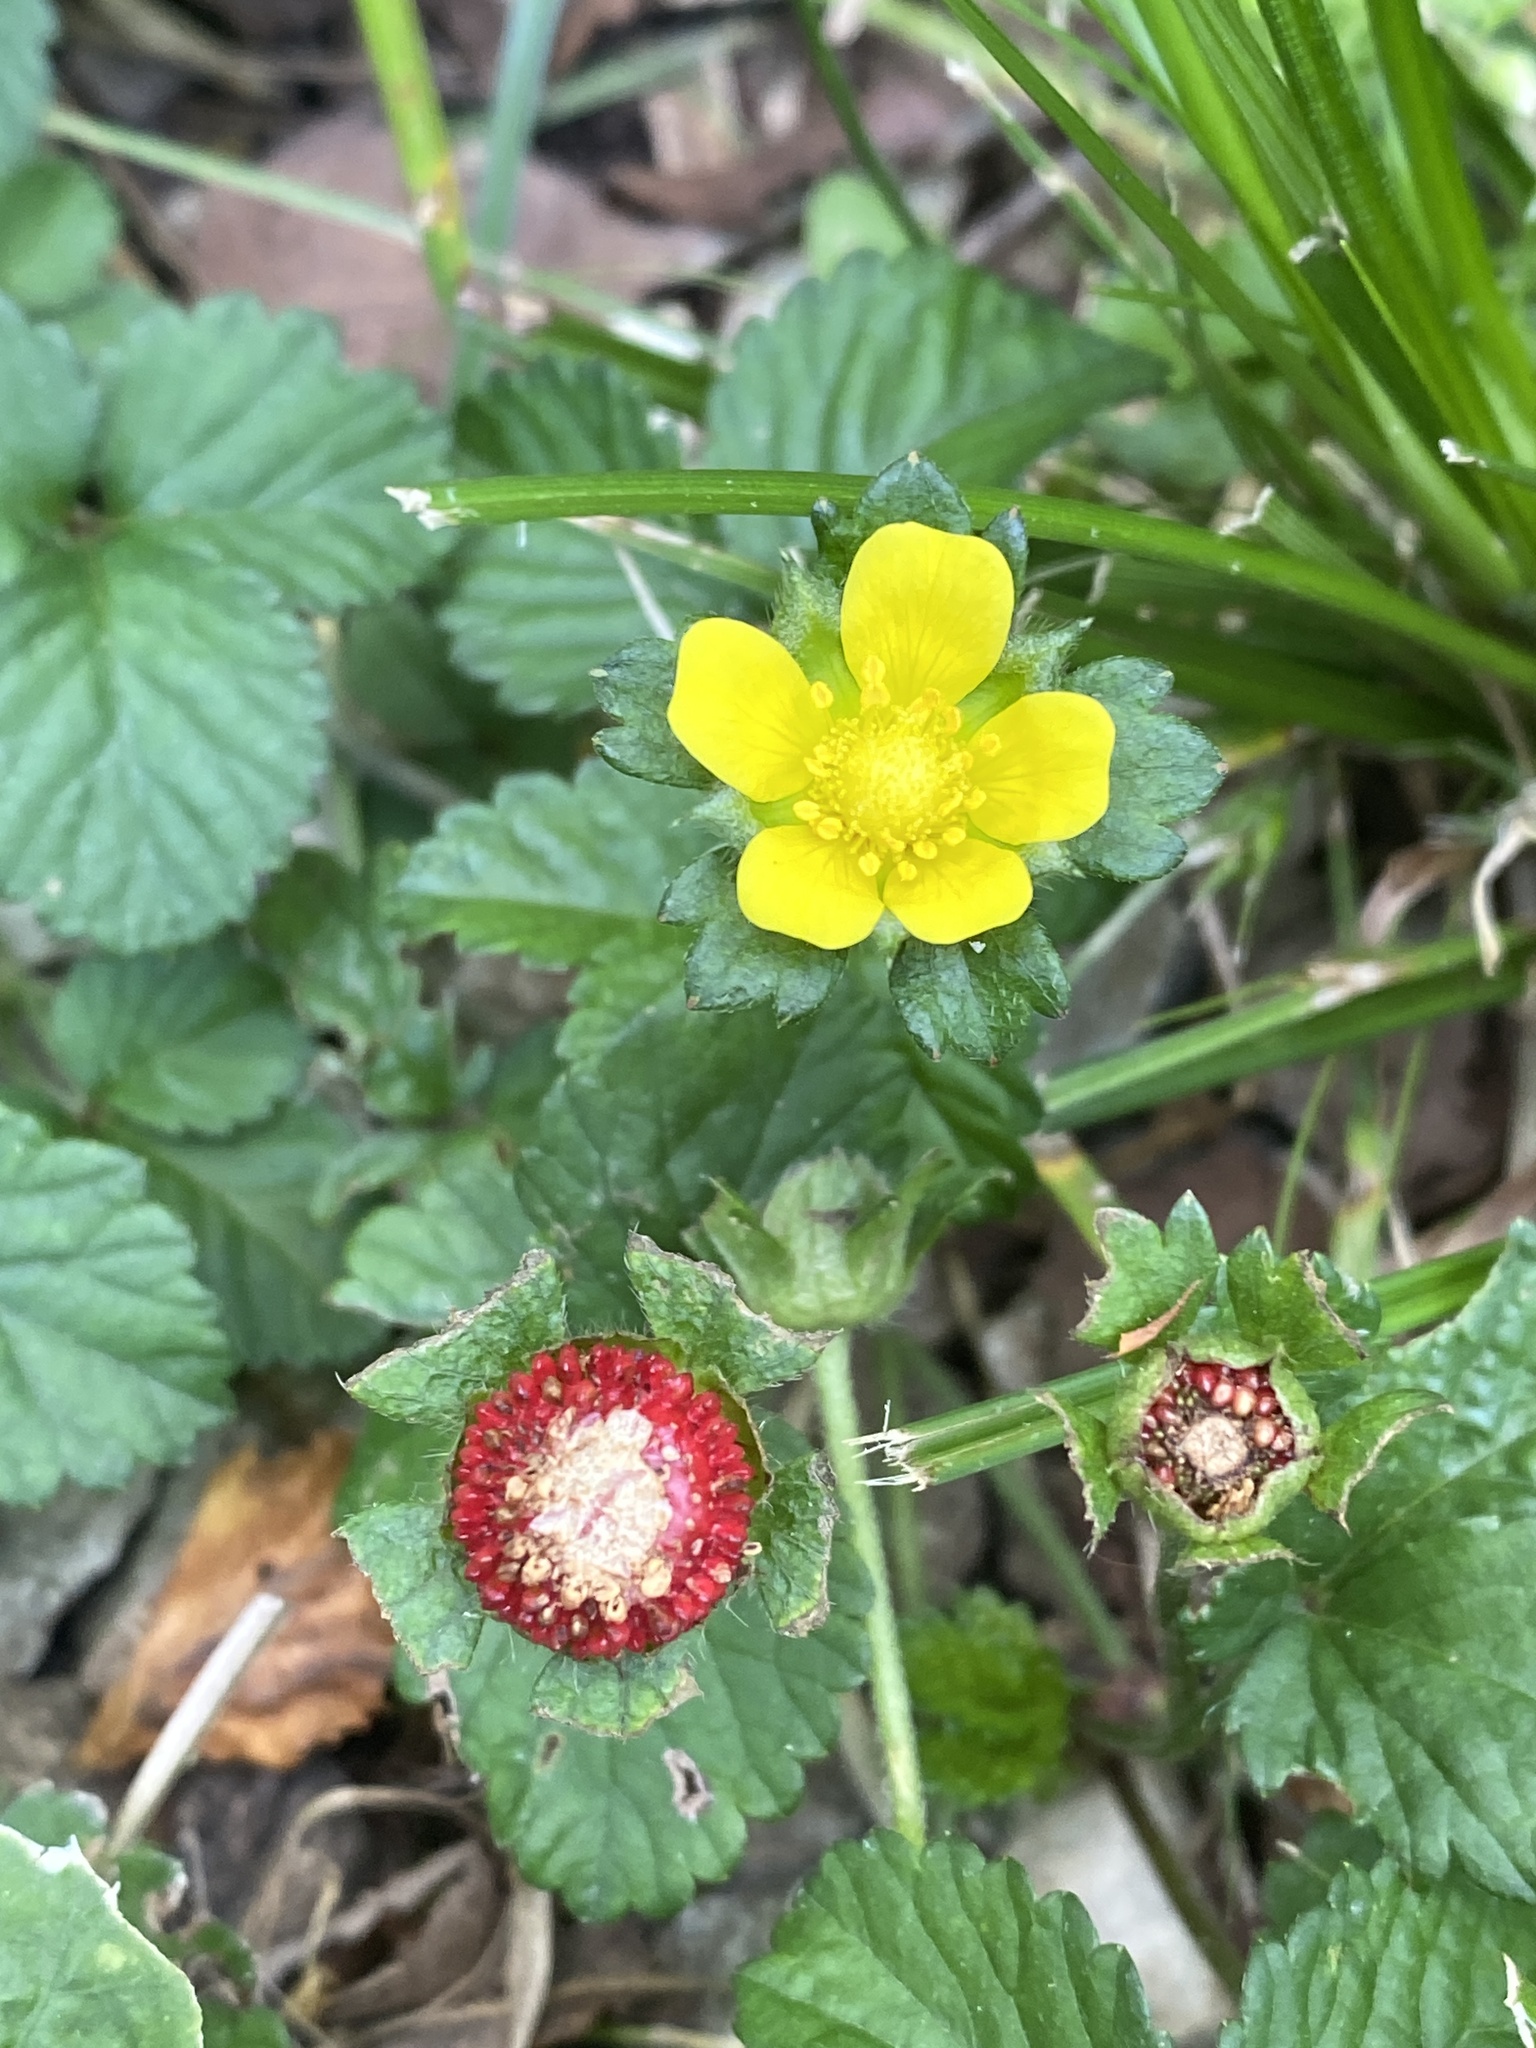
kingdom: Plantae
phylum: Tracheophyta
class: Magnoliopsida
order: Rosales
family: Rosaceae
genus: Potentilla
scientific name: Potentilla indica
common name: Yellow-flowered strawberry
